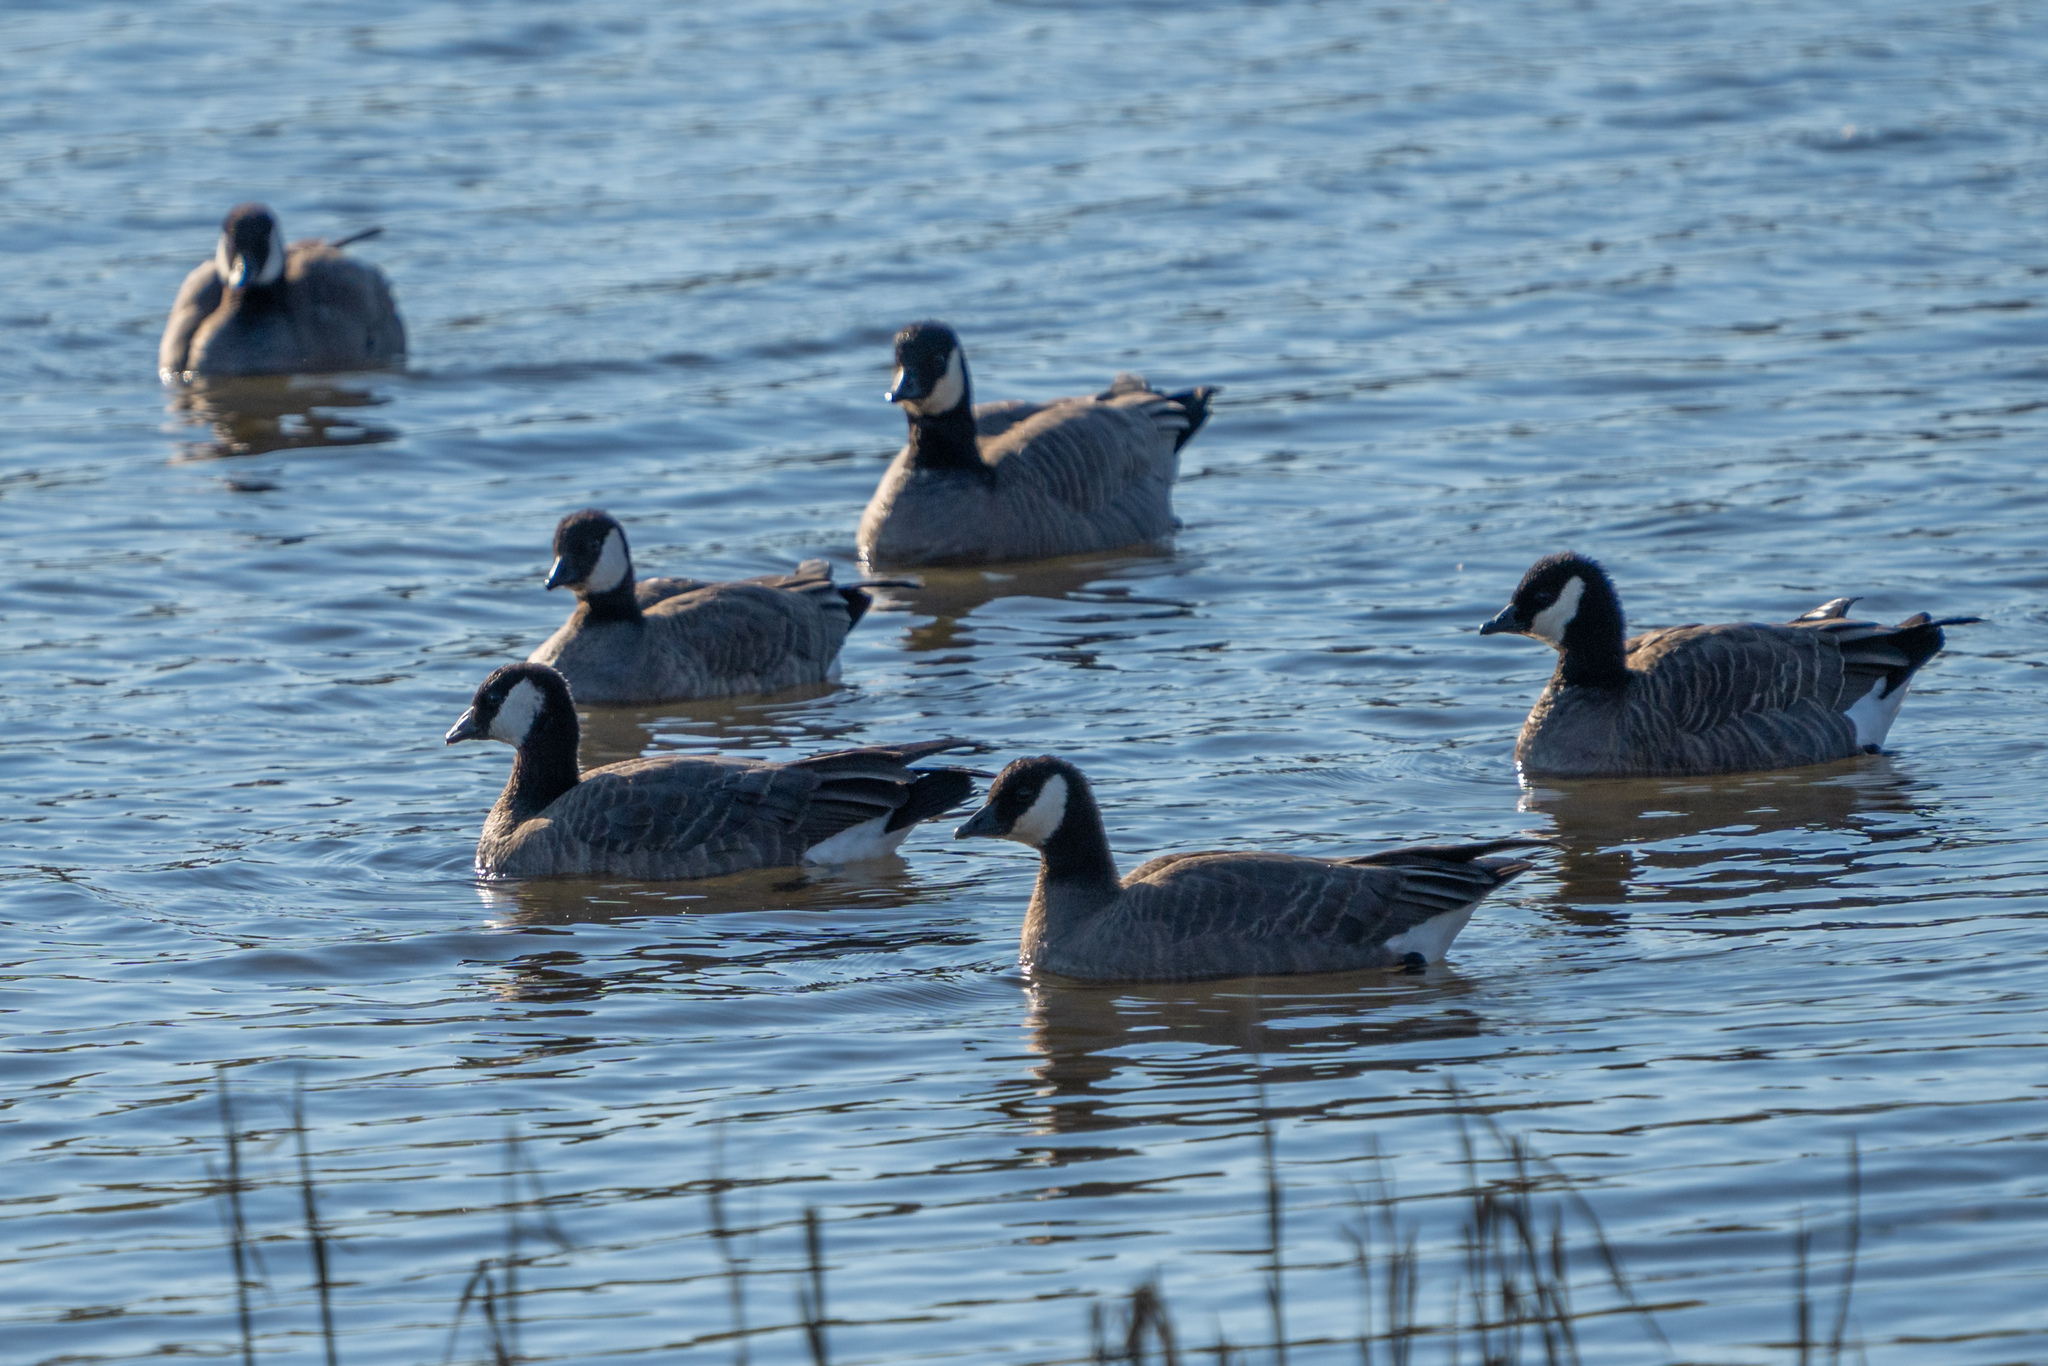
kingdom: Animalia
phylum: Chordata
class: Aves
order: Anseriformes
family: Anatidae
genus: Branta
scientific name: Branta hutchinsii
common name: Cackling goose
